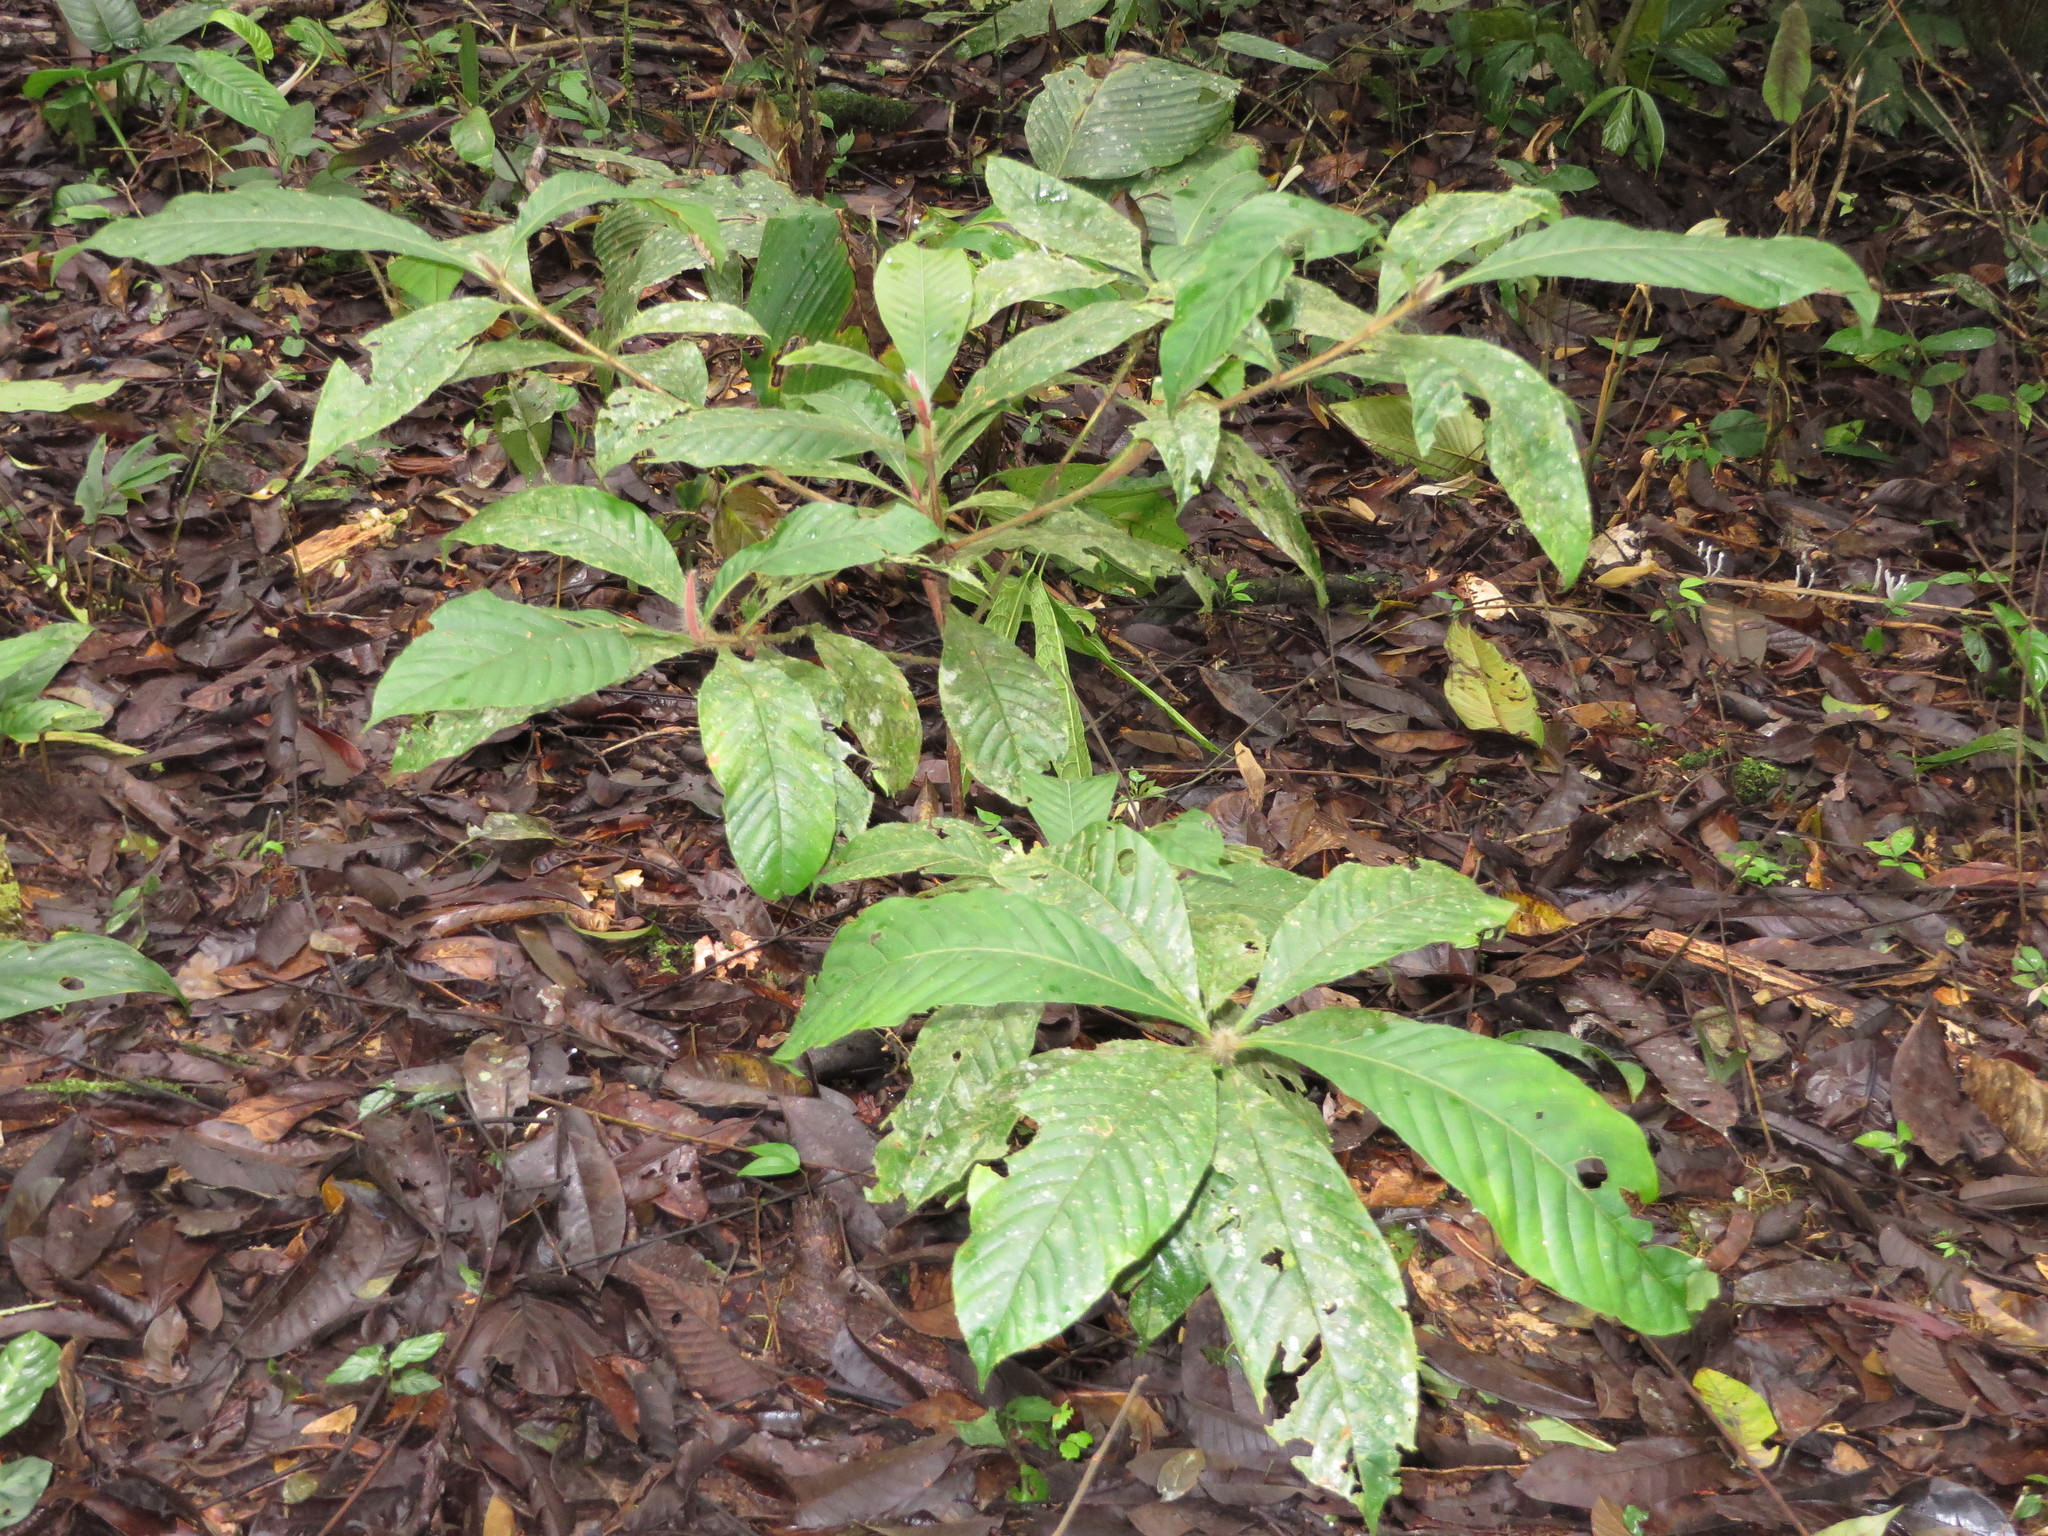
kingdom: Plantae
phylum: Tracheophyta
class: Magnoliopsida
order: Gentianales
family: Rubiaceae
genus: Duroia
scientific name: Duroia hirsuta
